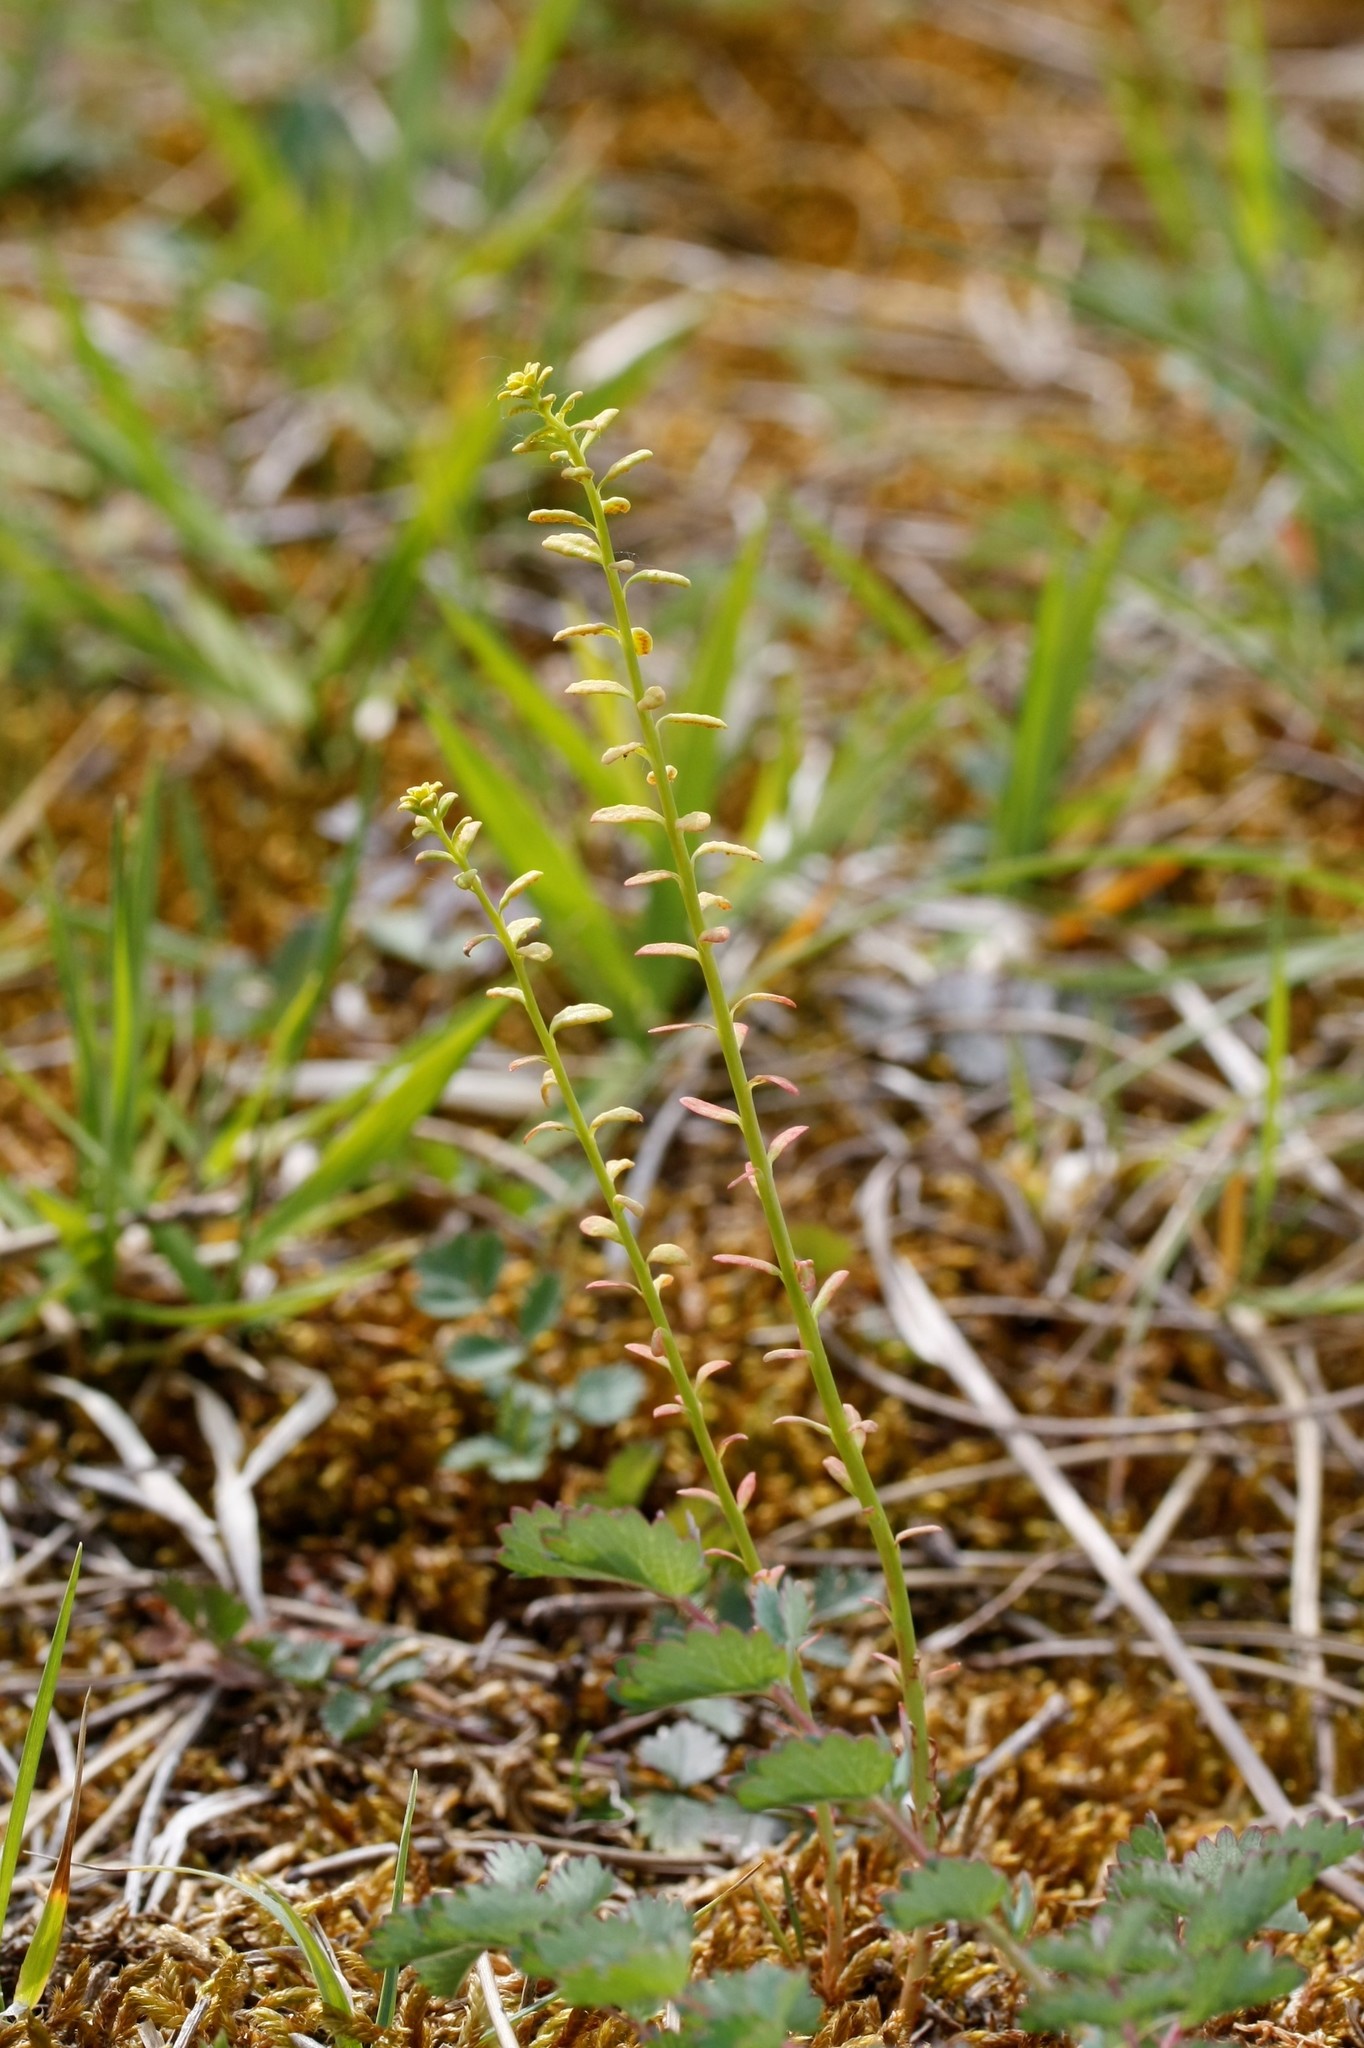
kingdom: Plantae
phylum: Tracheophyta
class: Magnoliopsida
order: Malpighiales
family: Euphorbiaceae
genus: Euphorbia
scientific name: Euphorbia cyparissias
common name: Cypress spurge
